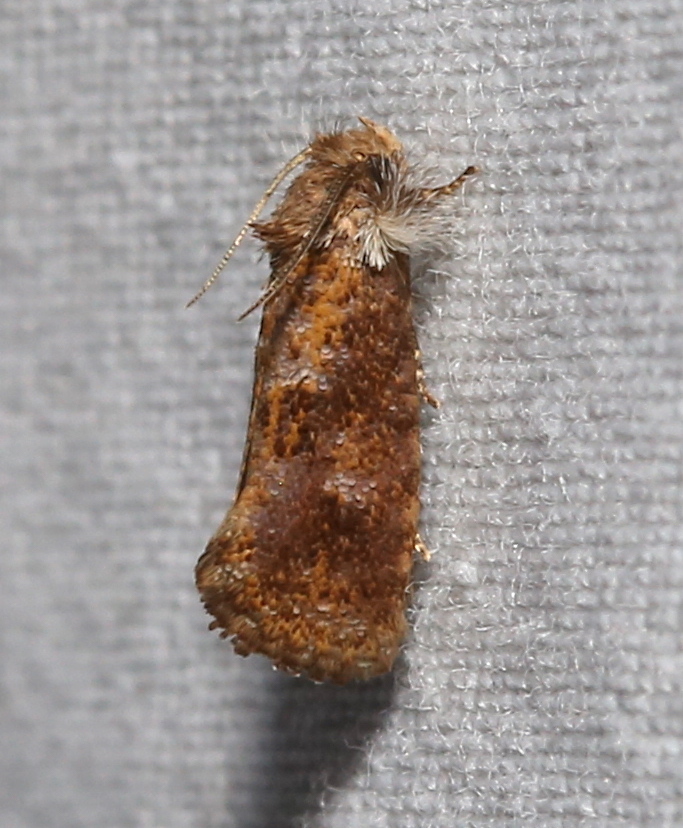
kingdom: Animalia
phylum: Arthropoda
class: Insecta
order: Lepidoptera
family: Tineidae
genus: Acrolophus
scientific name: Acrolophus panamae
